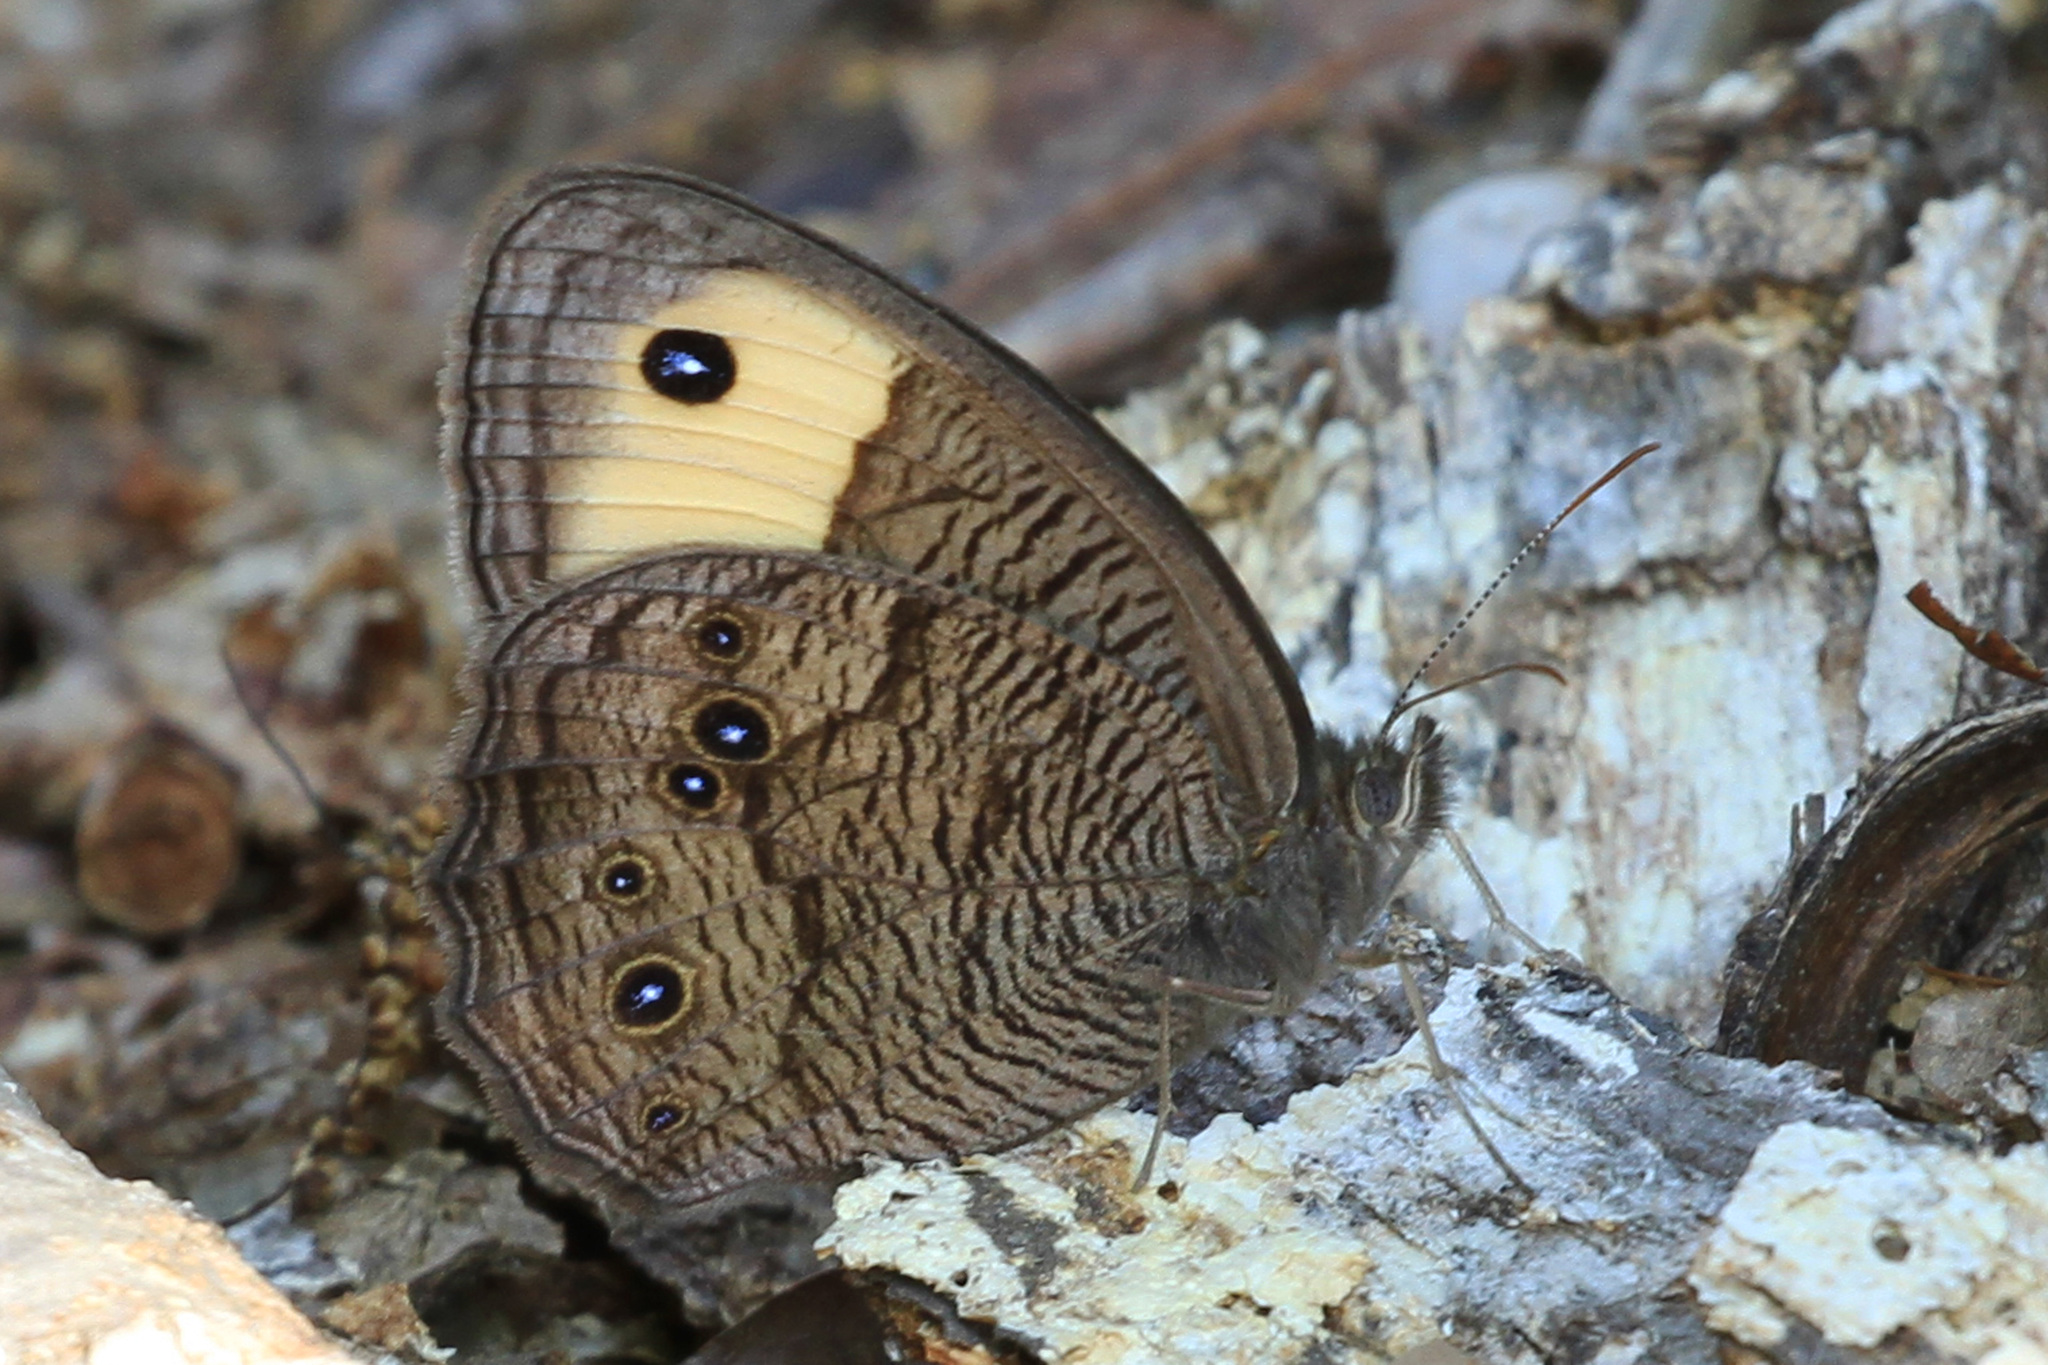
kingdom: Animalia
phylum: Arthropoda
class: Insecta
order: Lepidoptera
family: Nymphalidae
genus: Cercyonis
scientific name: Cercyonis pegala
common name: Common wood-nymph
